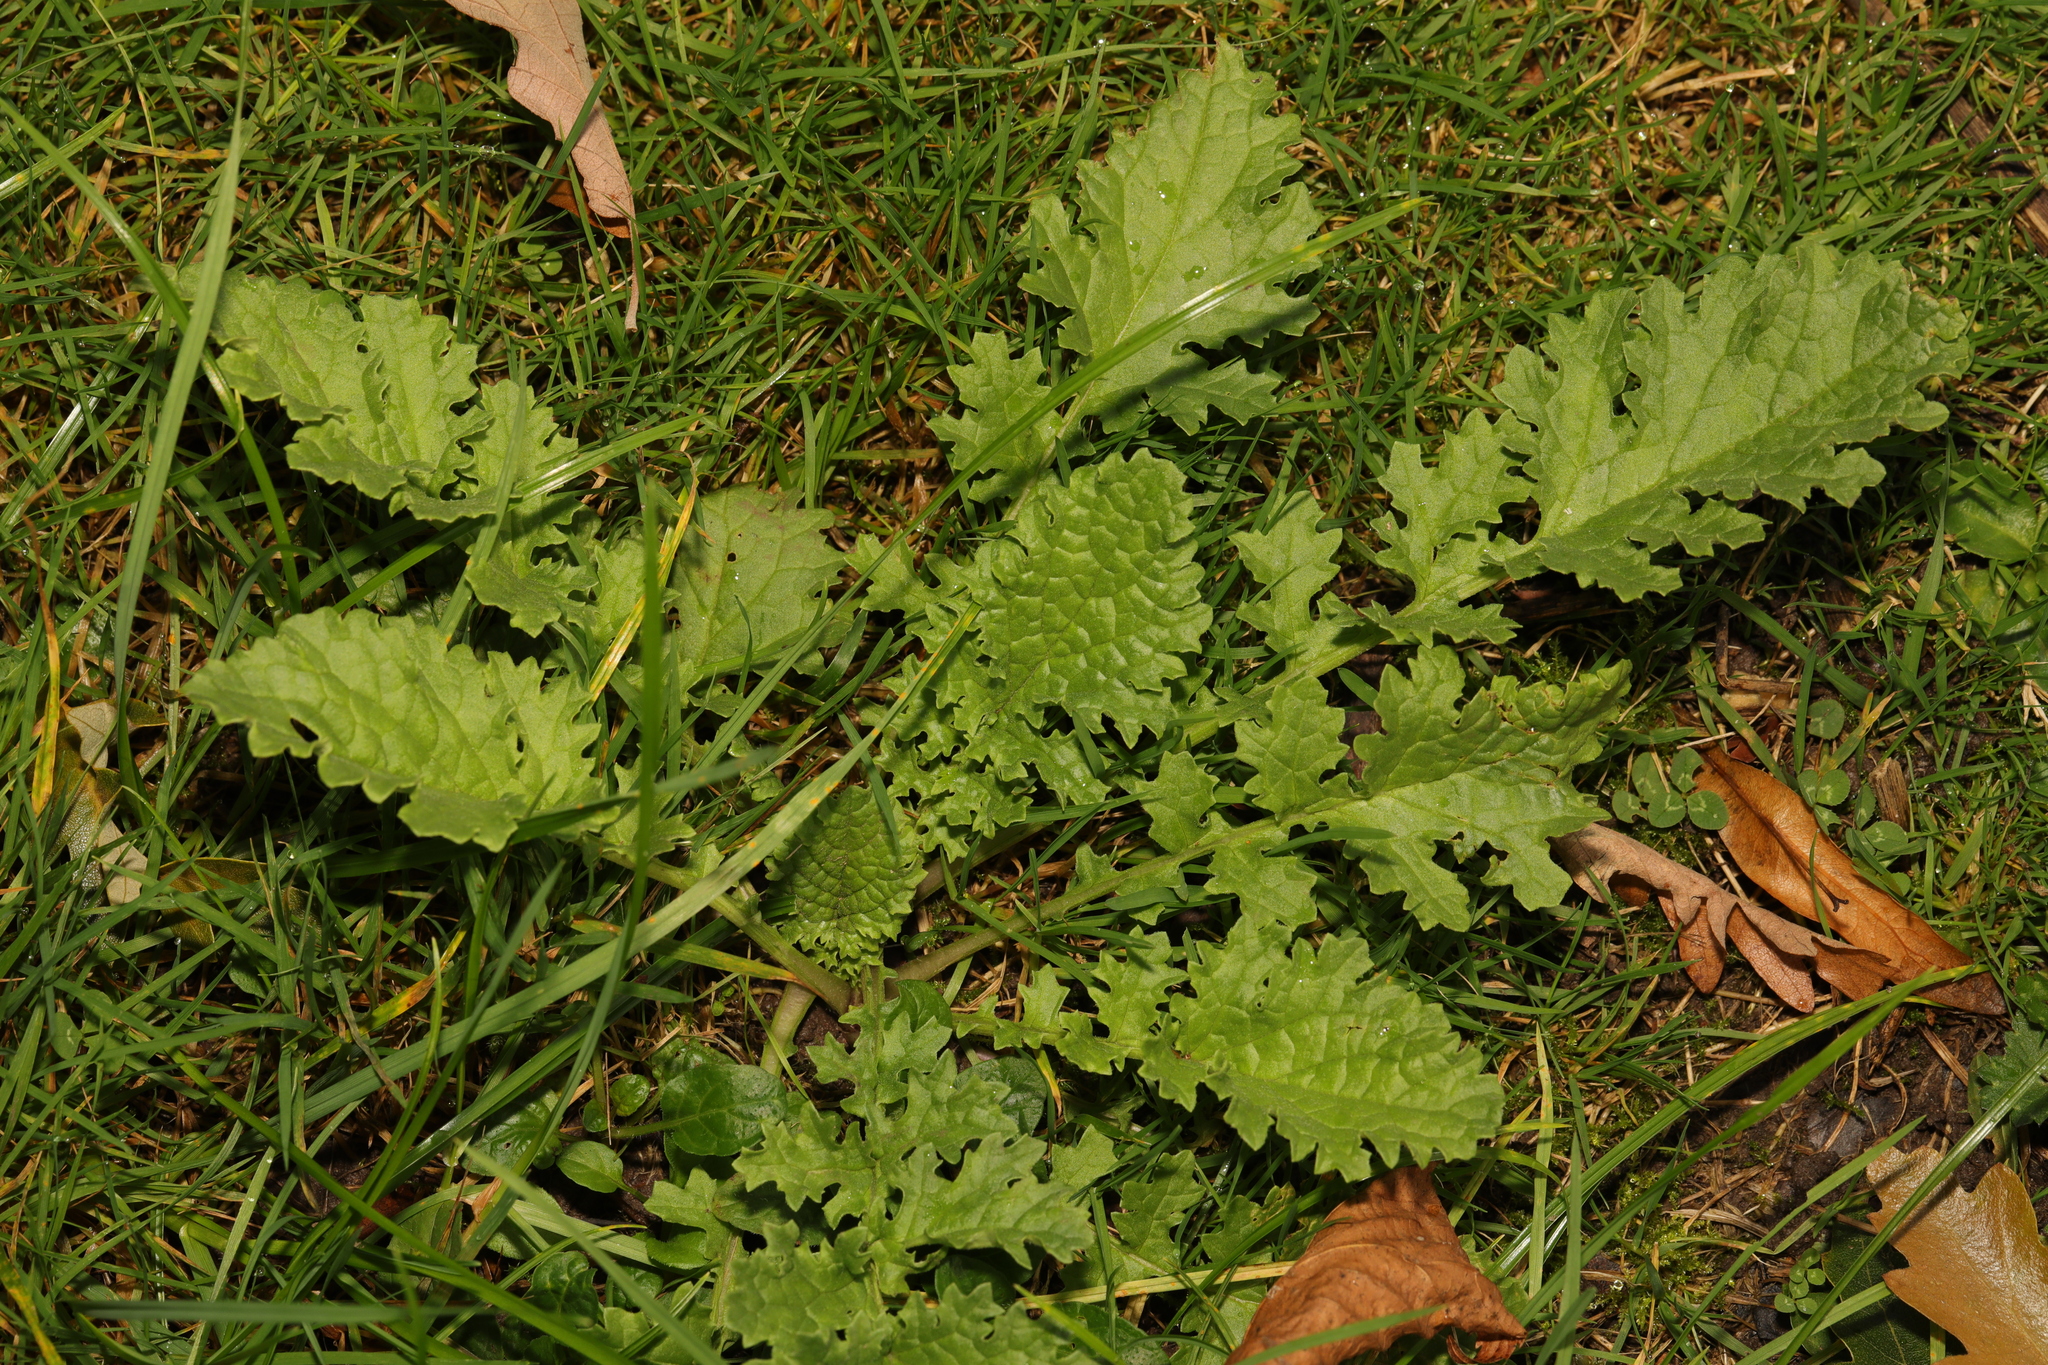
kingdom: Plantae
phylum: Tracheophyta
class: Magnoliopsida
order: Asterales
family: Asteraceae
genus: Jacobaea
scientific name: Jacobaea vulgaris
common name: Stinking willie
